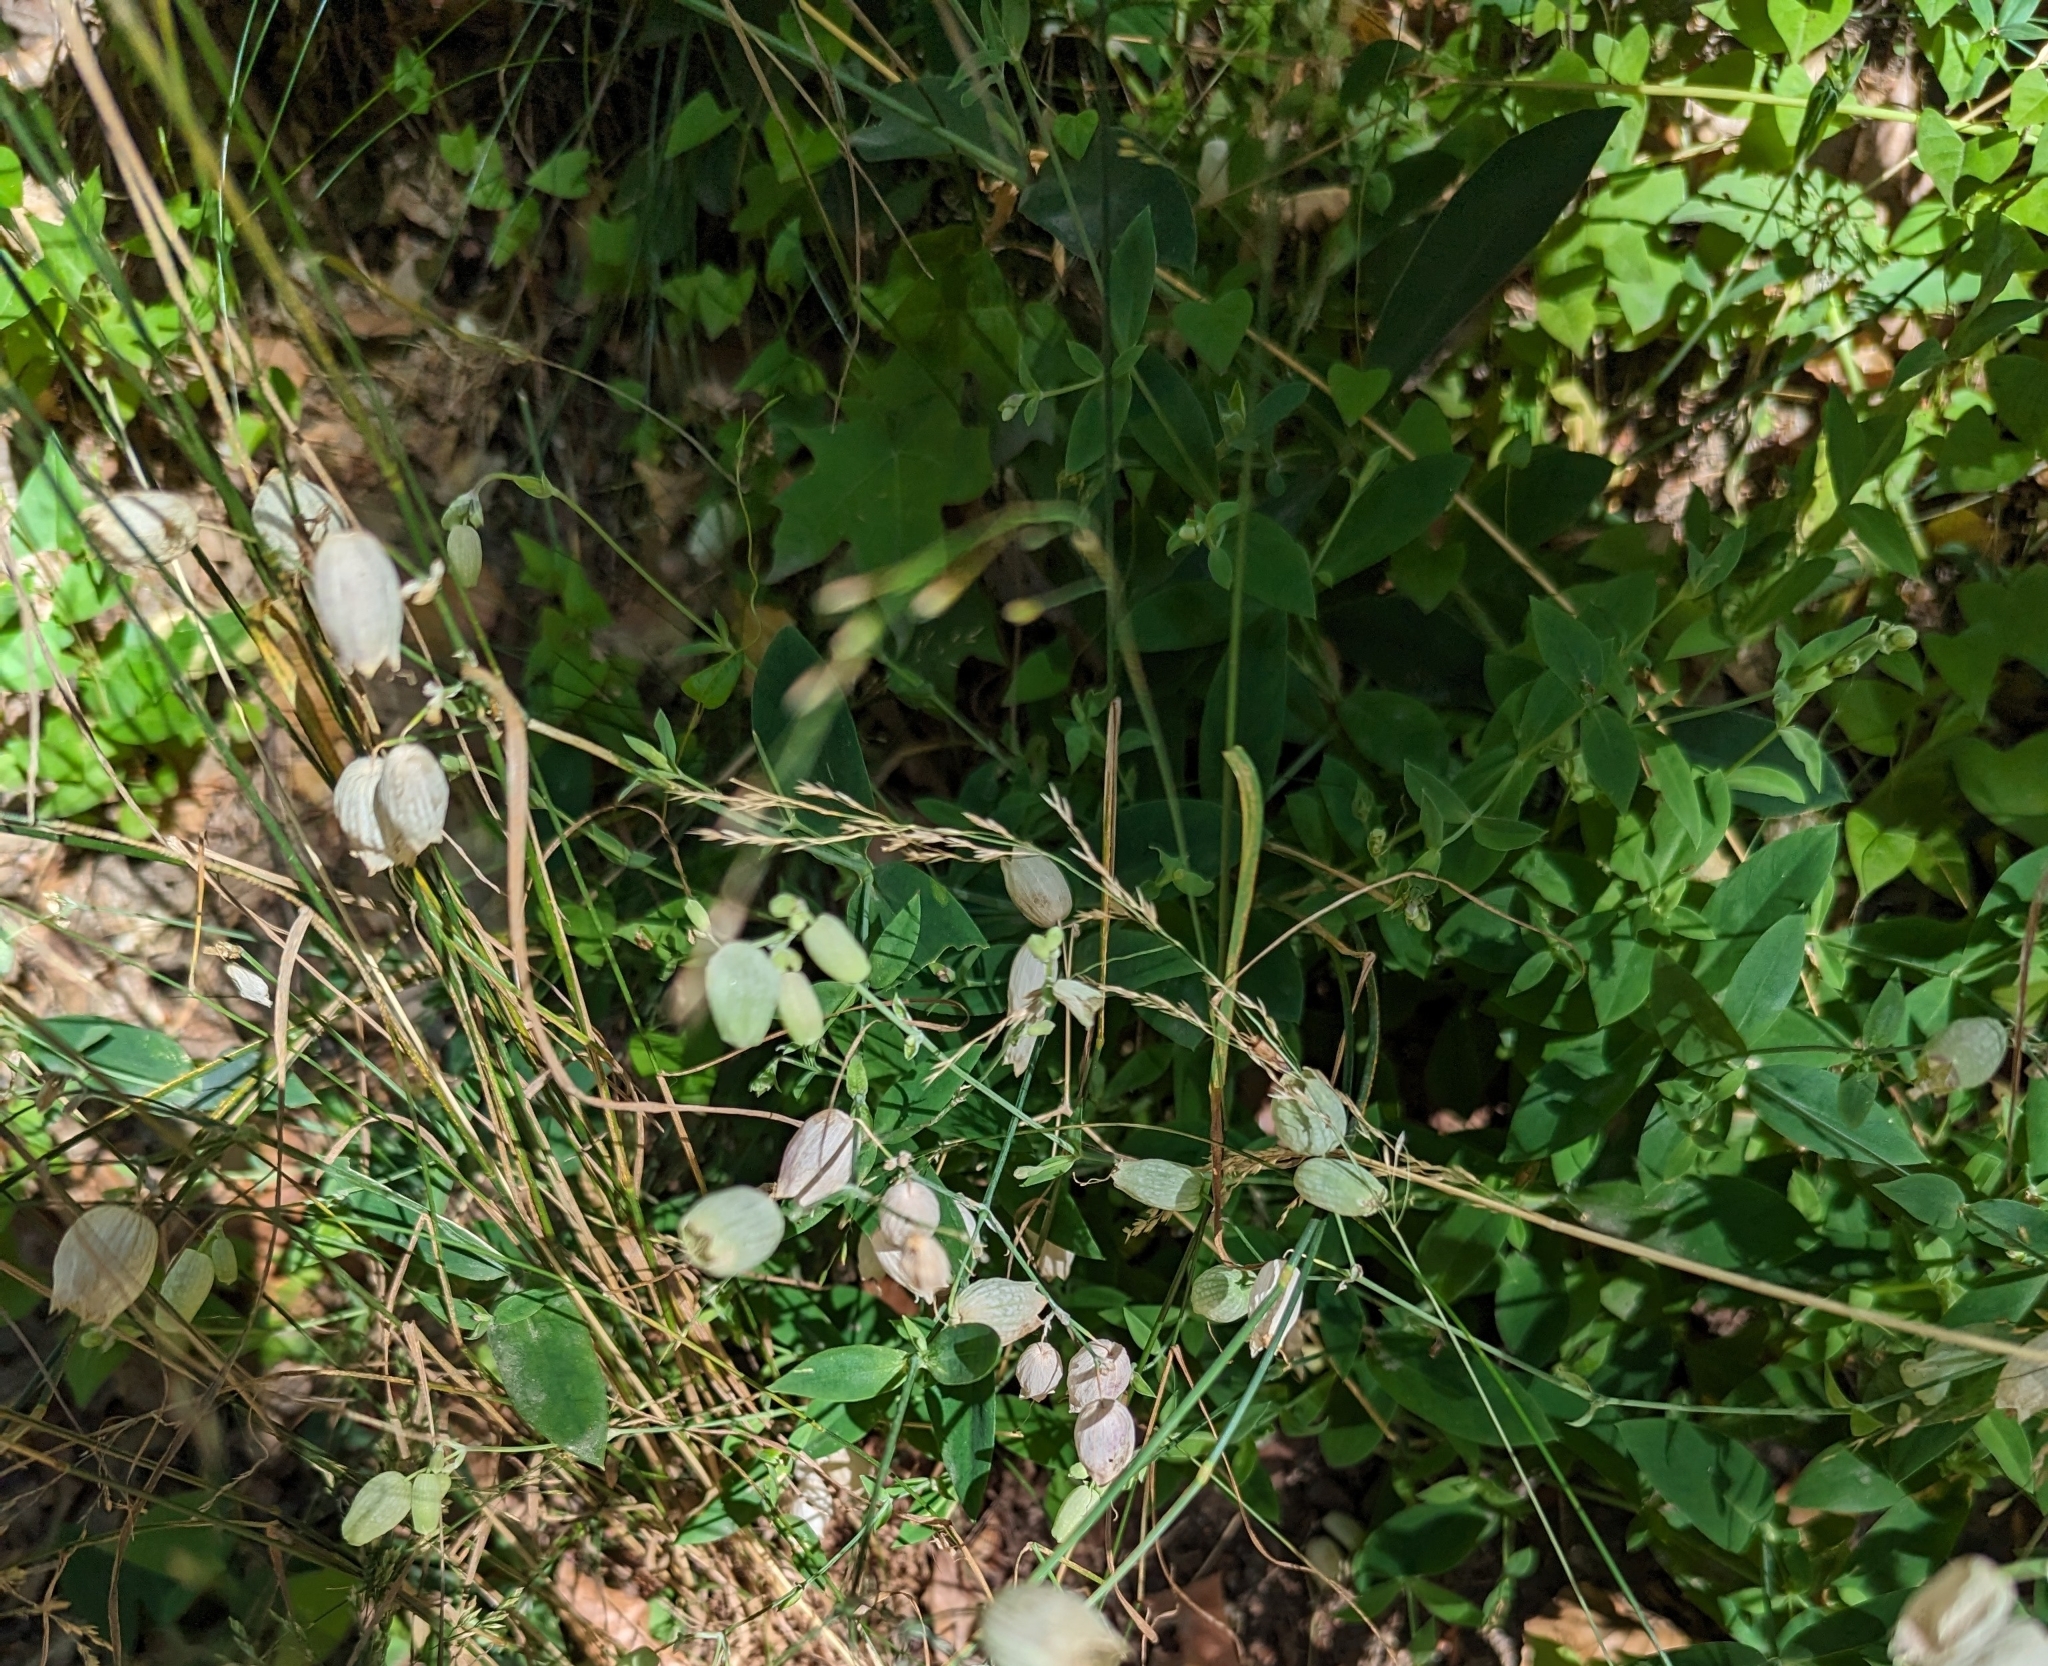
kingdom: Plantae
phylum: Tracheophyta
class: Magnoliopsida
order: Caryophyllales
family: Caryophyllaceae
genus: Silene
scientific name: Silene vulgaris
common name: Bladder campion
